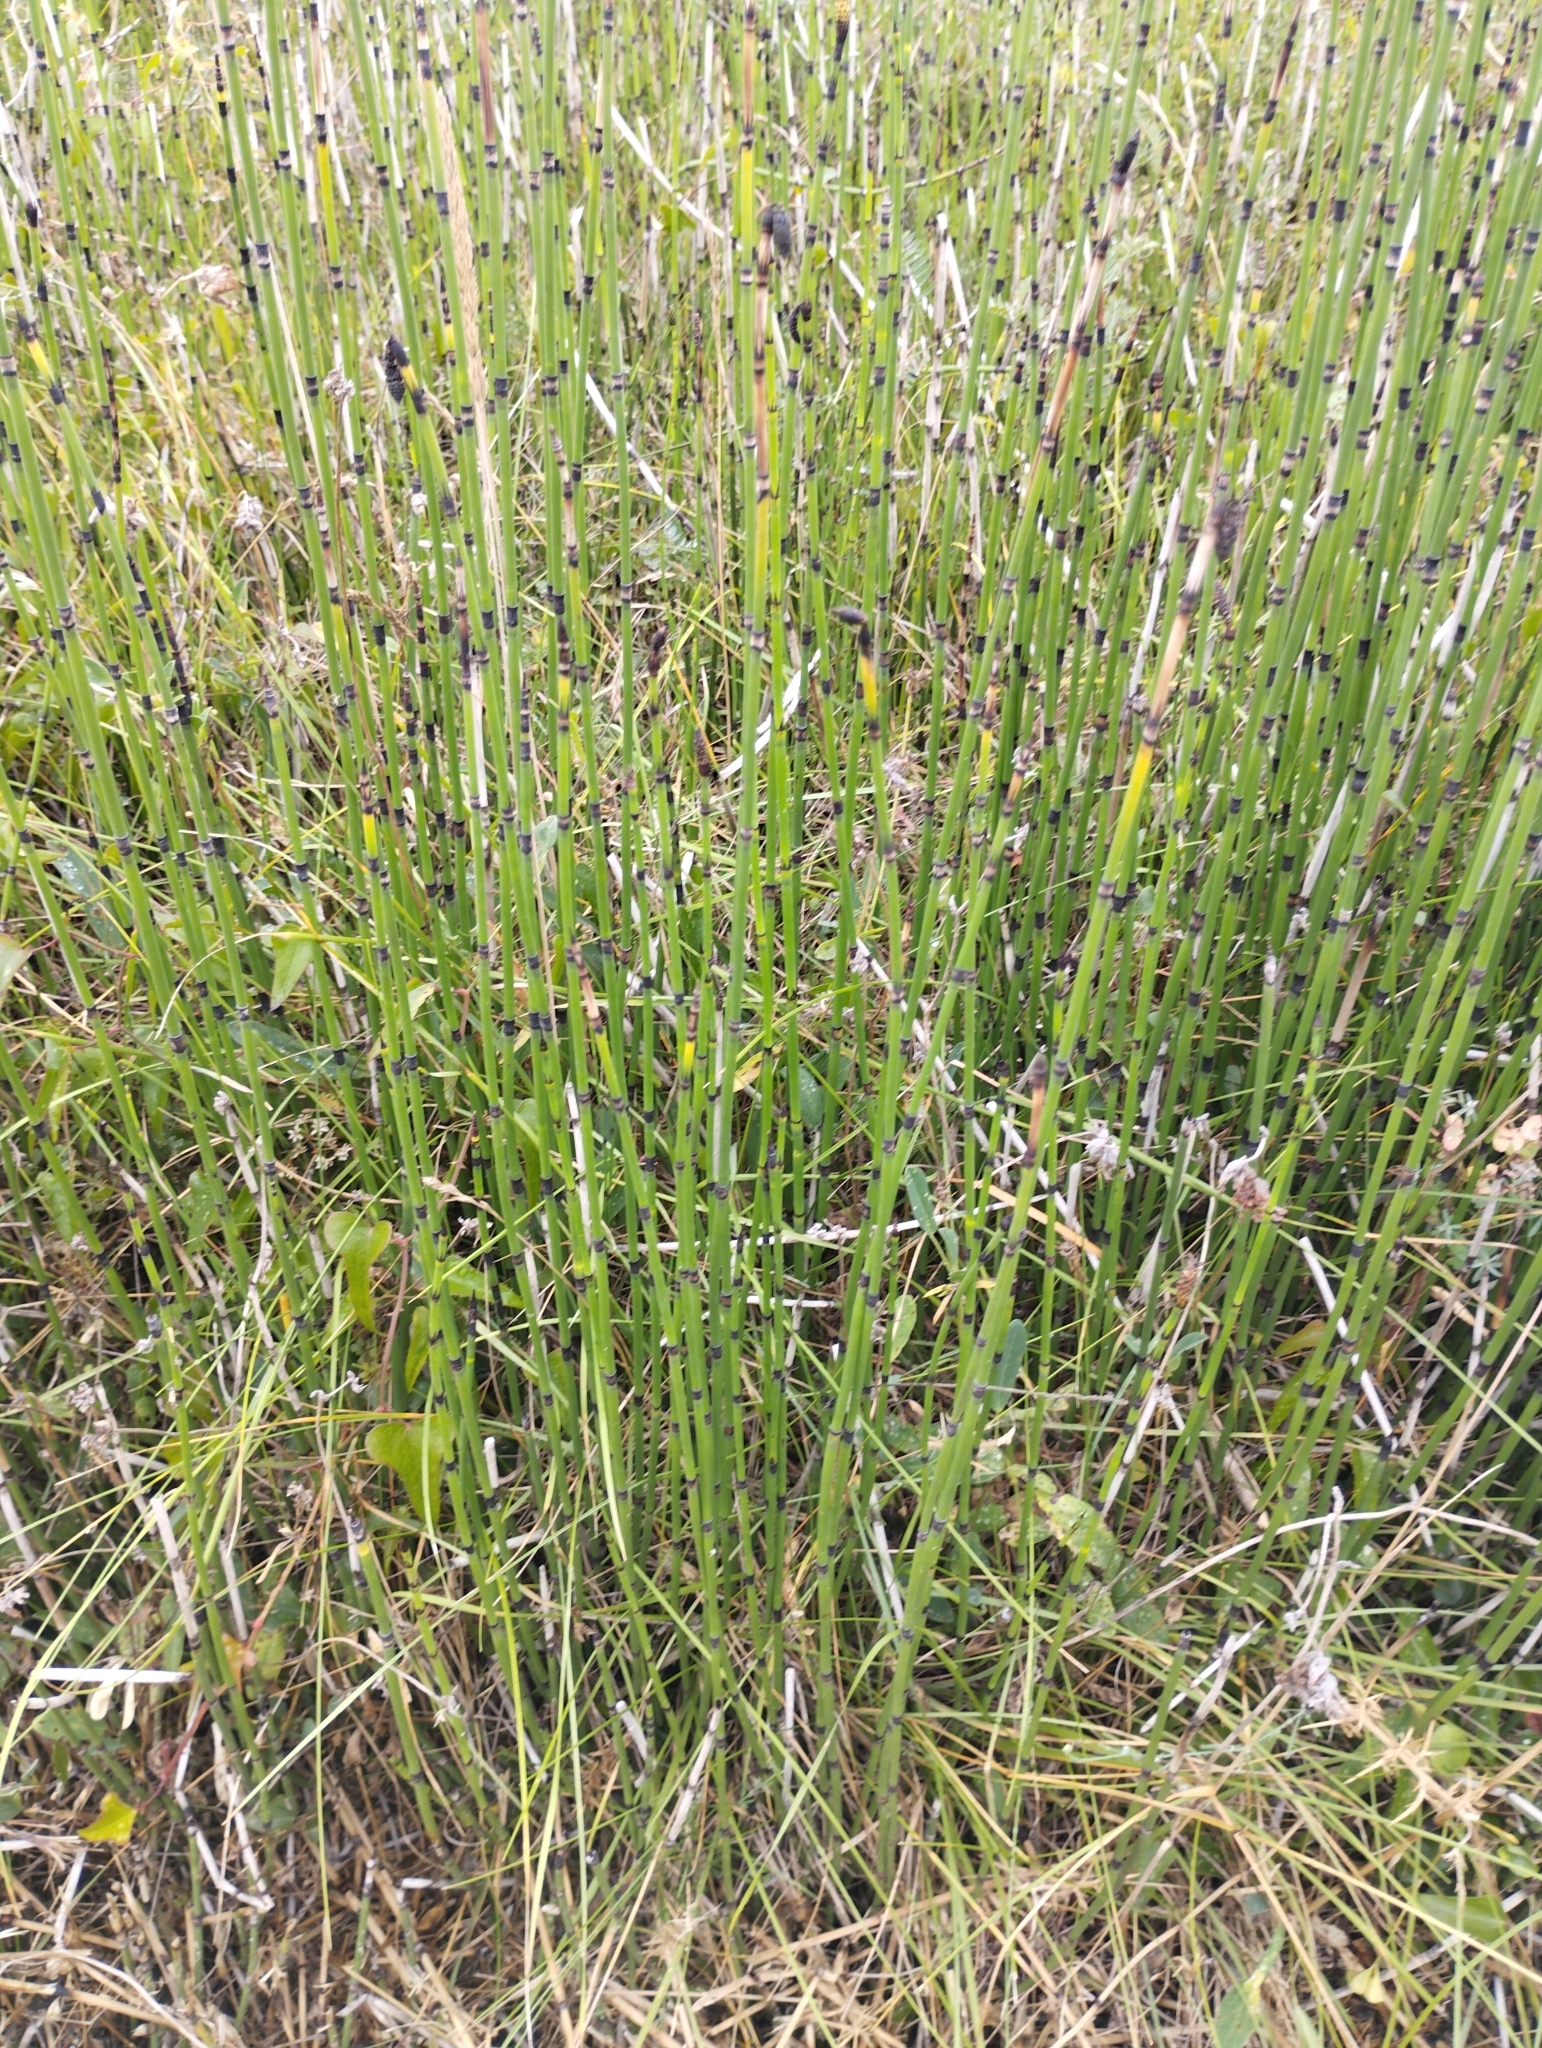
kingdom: Plantae
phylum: Tracheophyta
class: Polypodiopsida
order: Equisetales
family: Equisetaceae
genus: Equisetum
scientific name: Equisetum moorei
